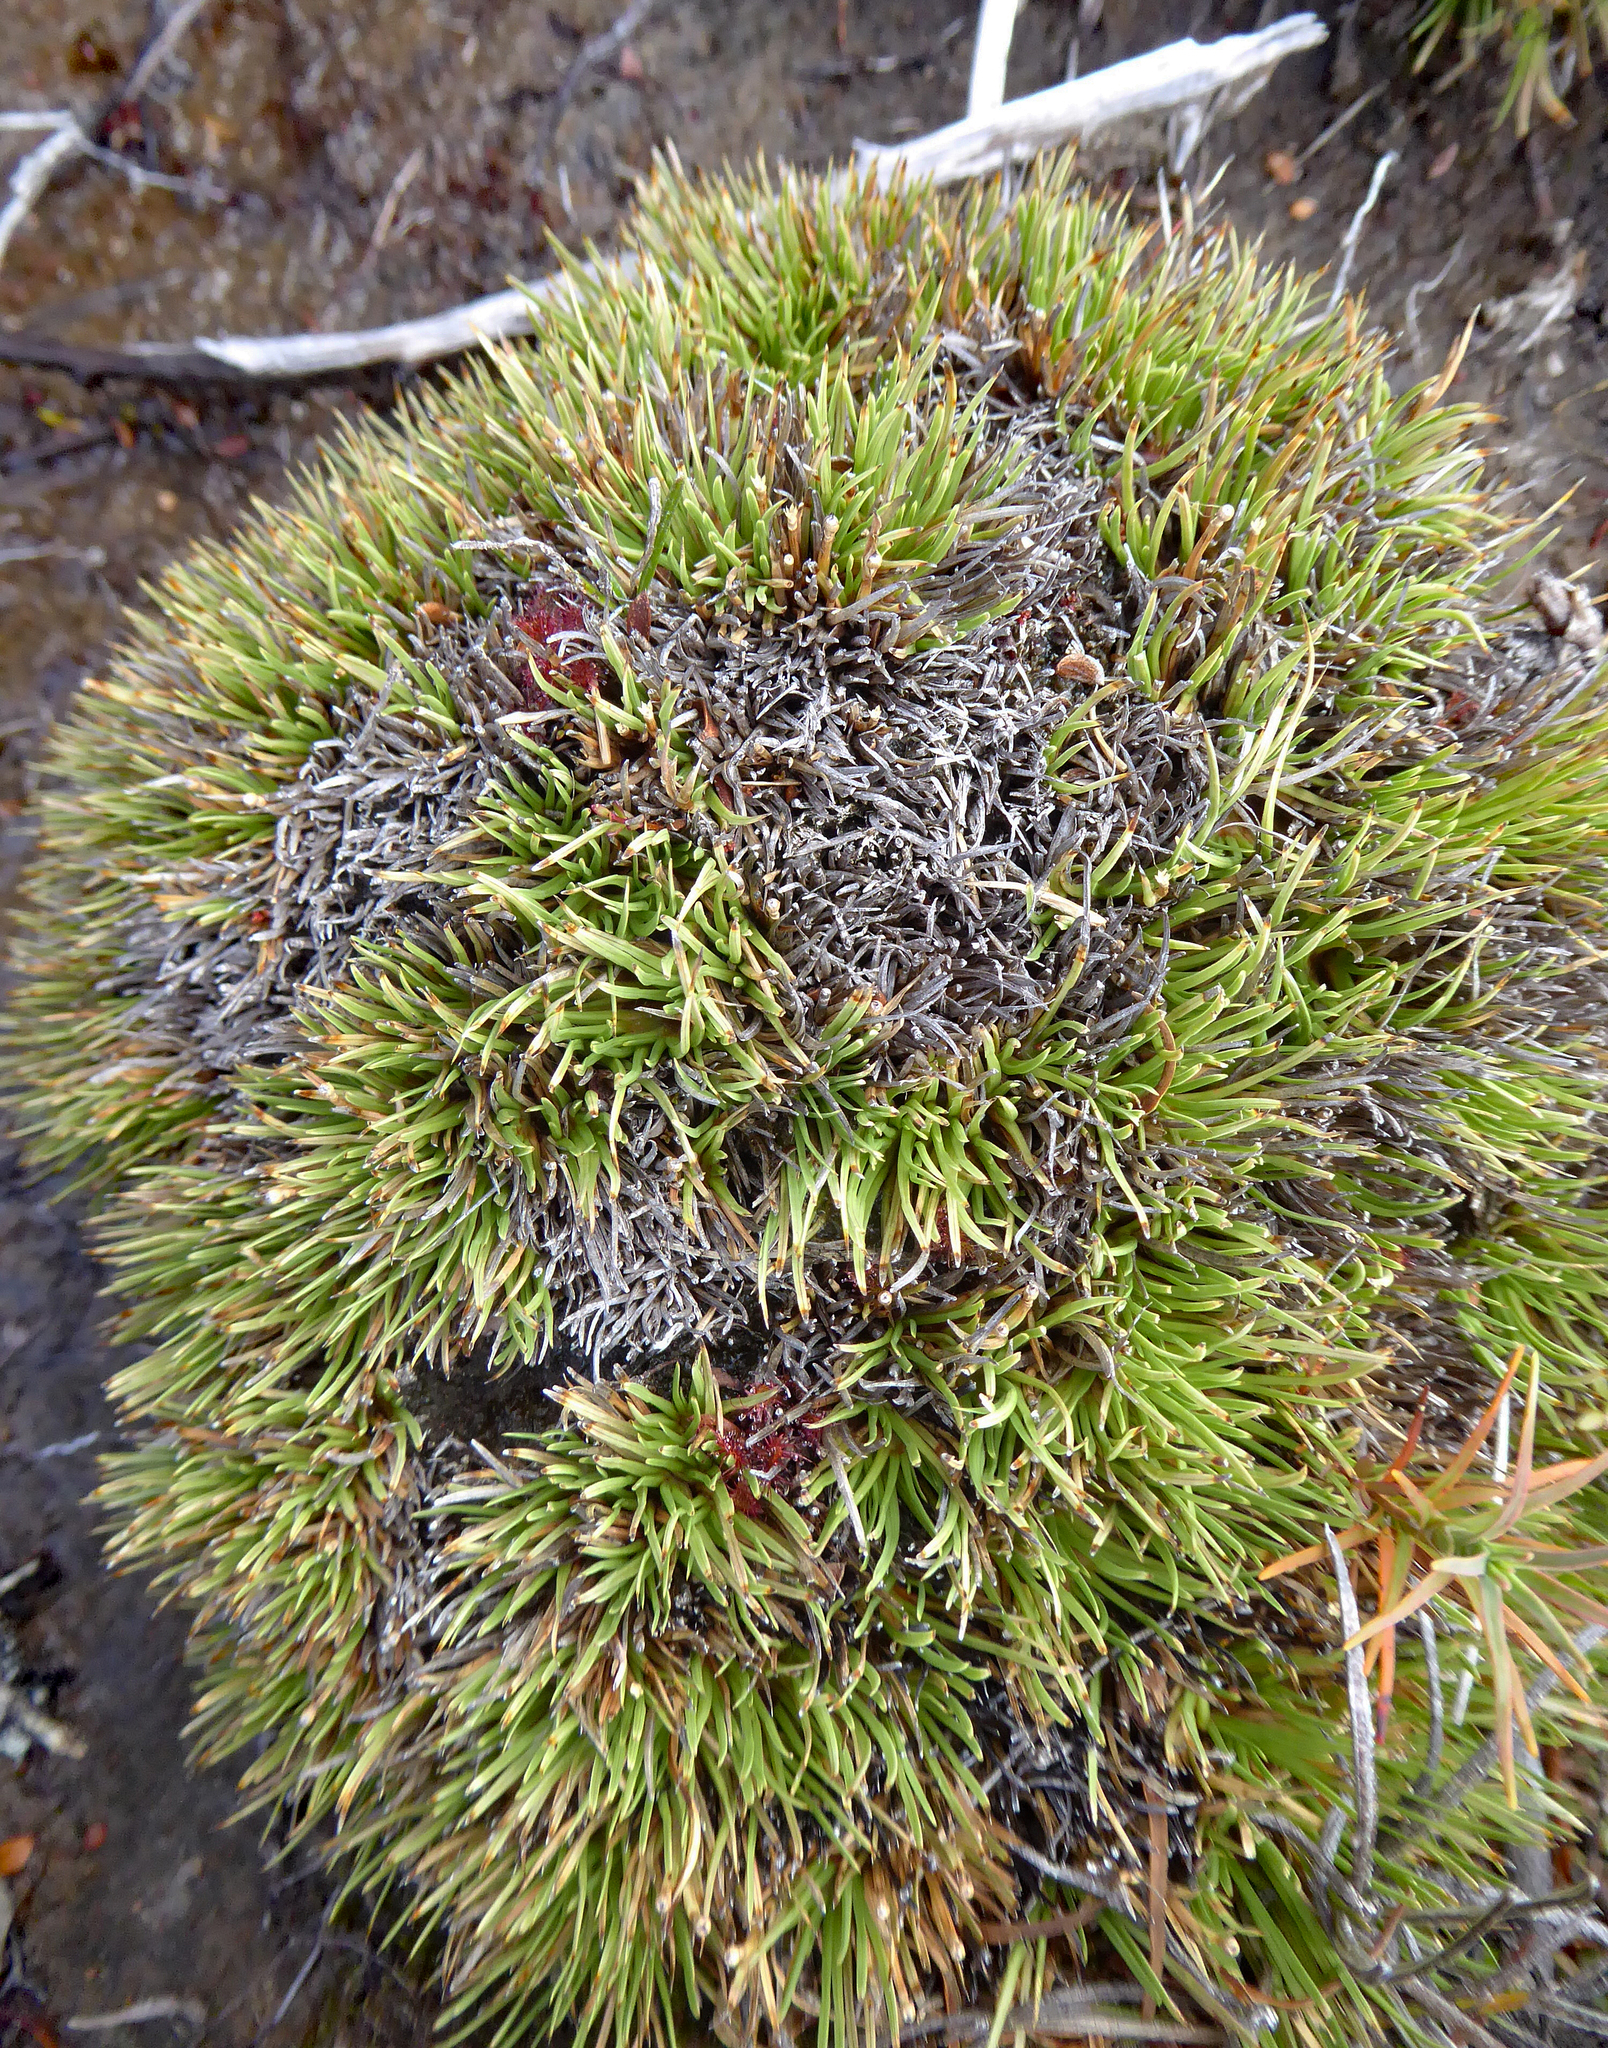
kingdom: Plantae
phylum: Tracheophyta
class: Liliopsida
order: Poales
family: Cyperaceae
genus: Oreobolus
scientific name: Oreobolus pectinatus
